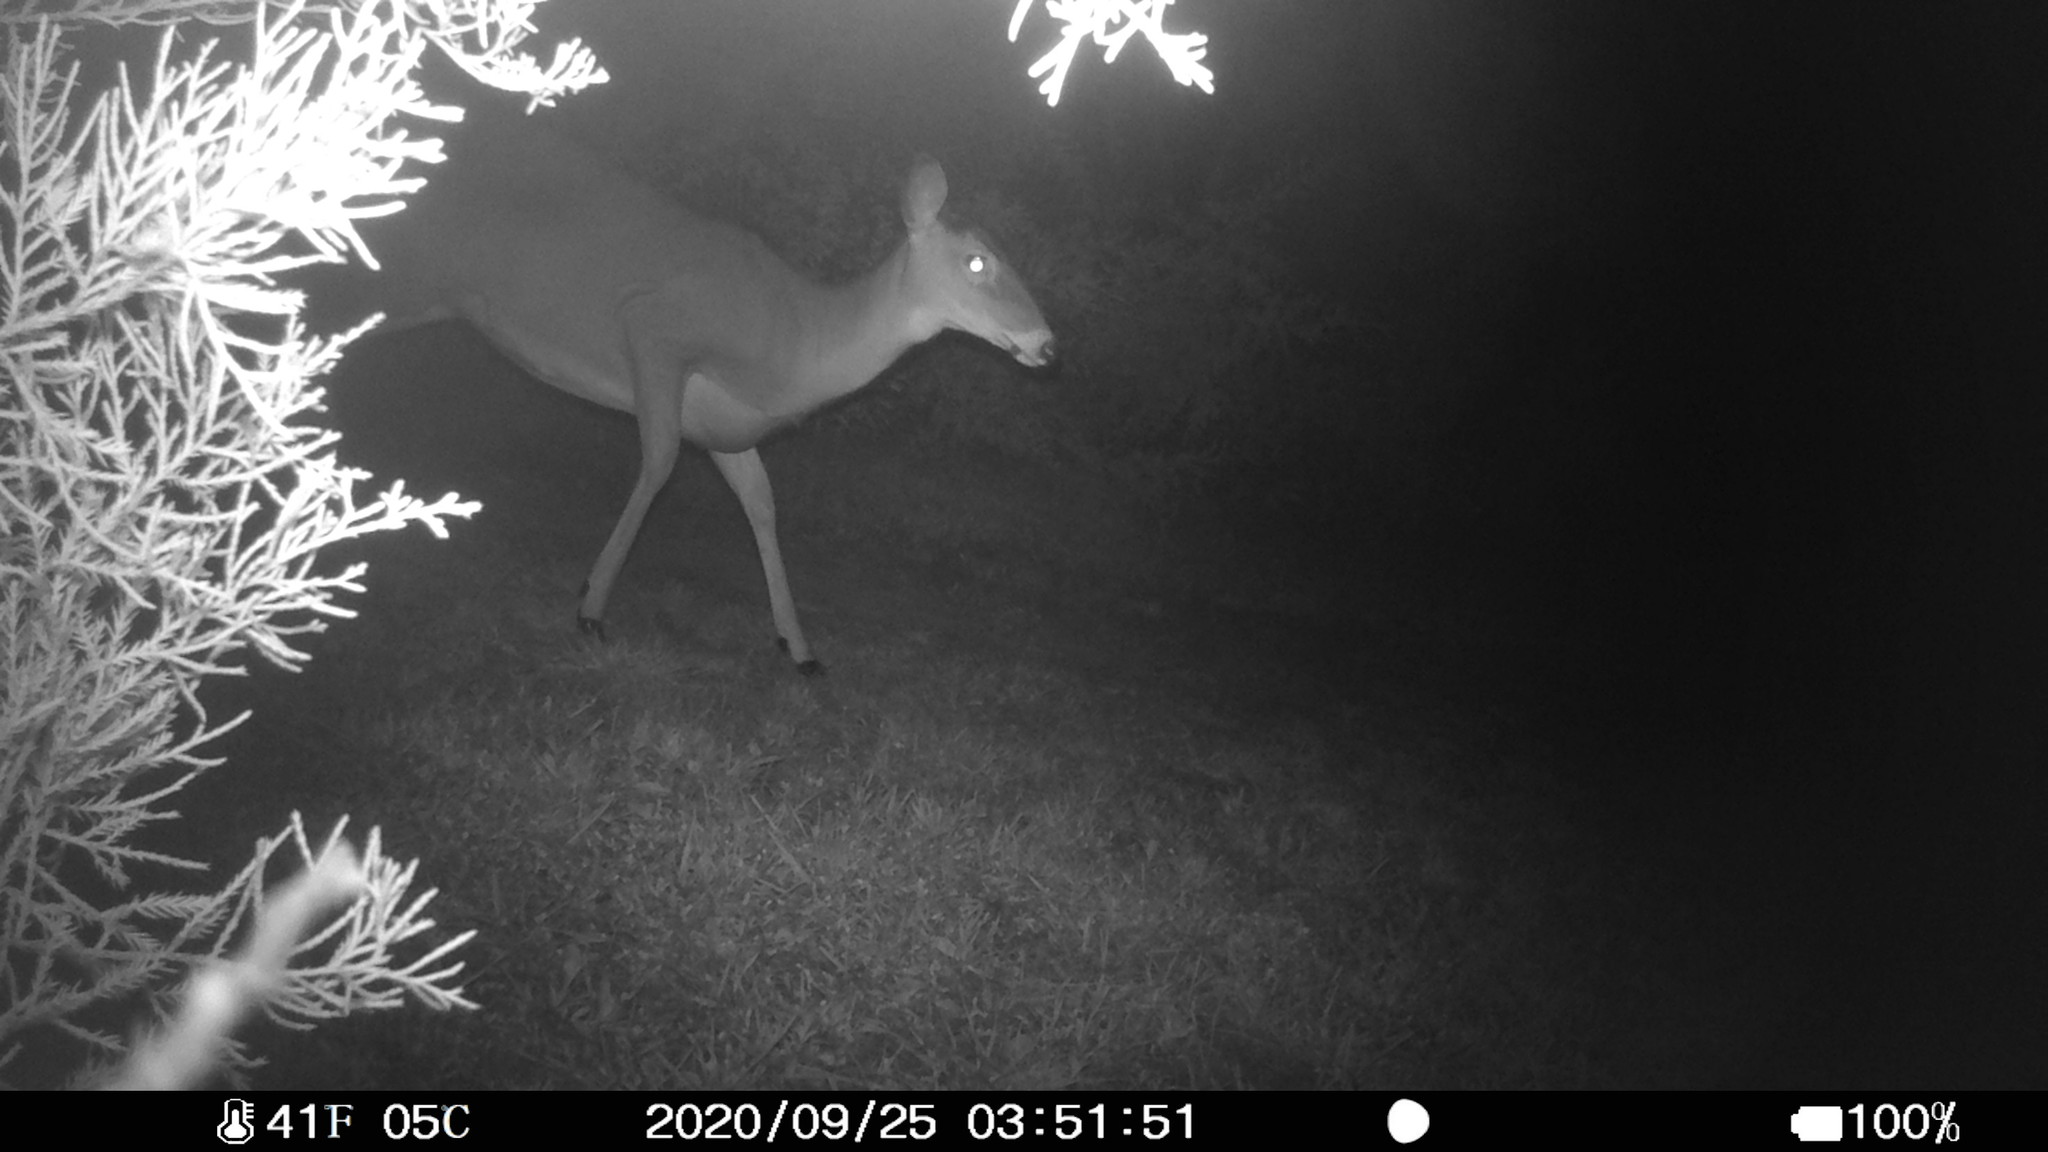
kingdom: Animalia
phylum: Chordata
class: Mammalia
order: Artiodactyla
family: Cervidae
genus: Odocoileus
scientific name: Odocoileus virginianus
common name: White-tailed deer
